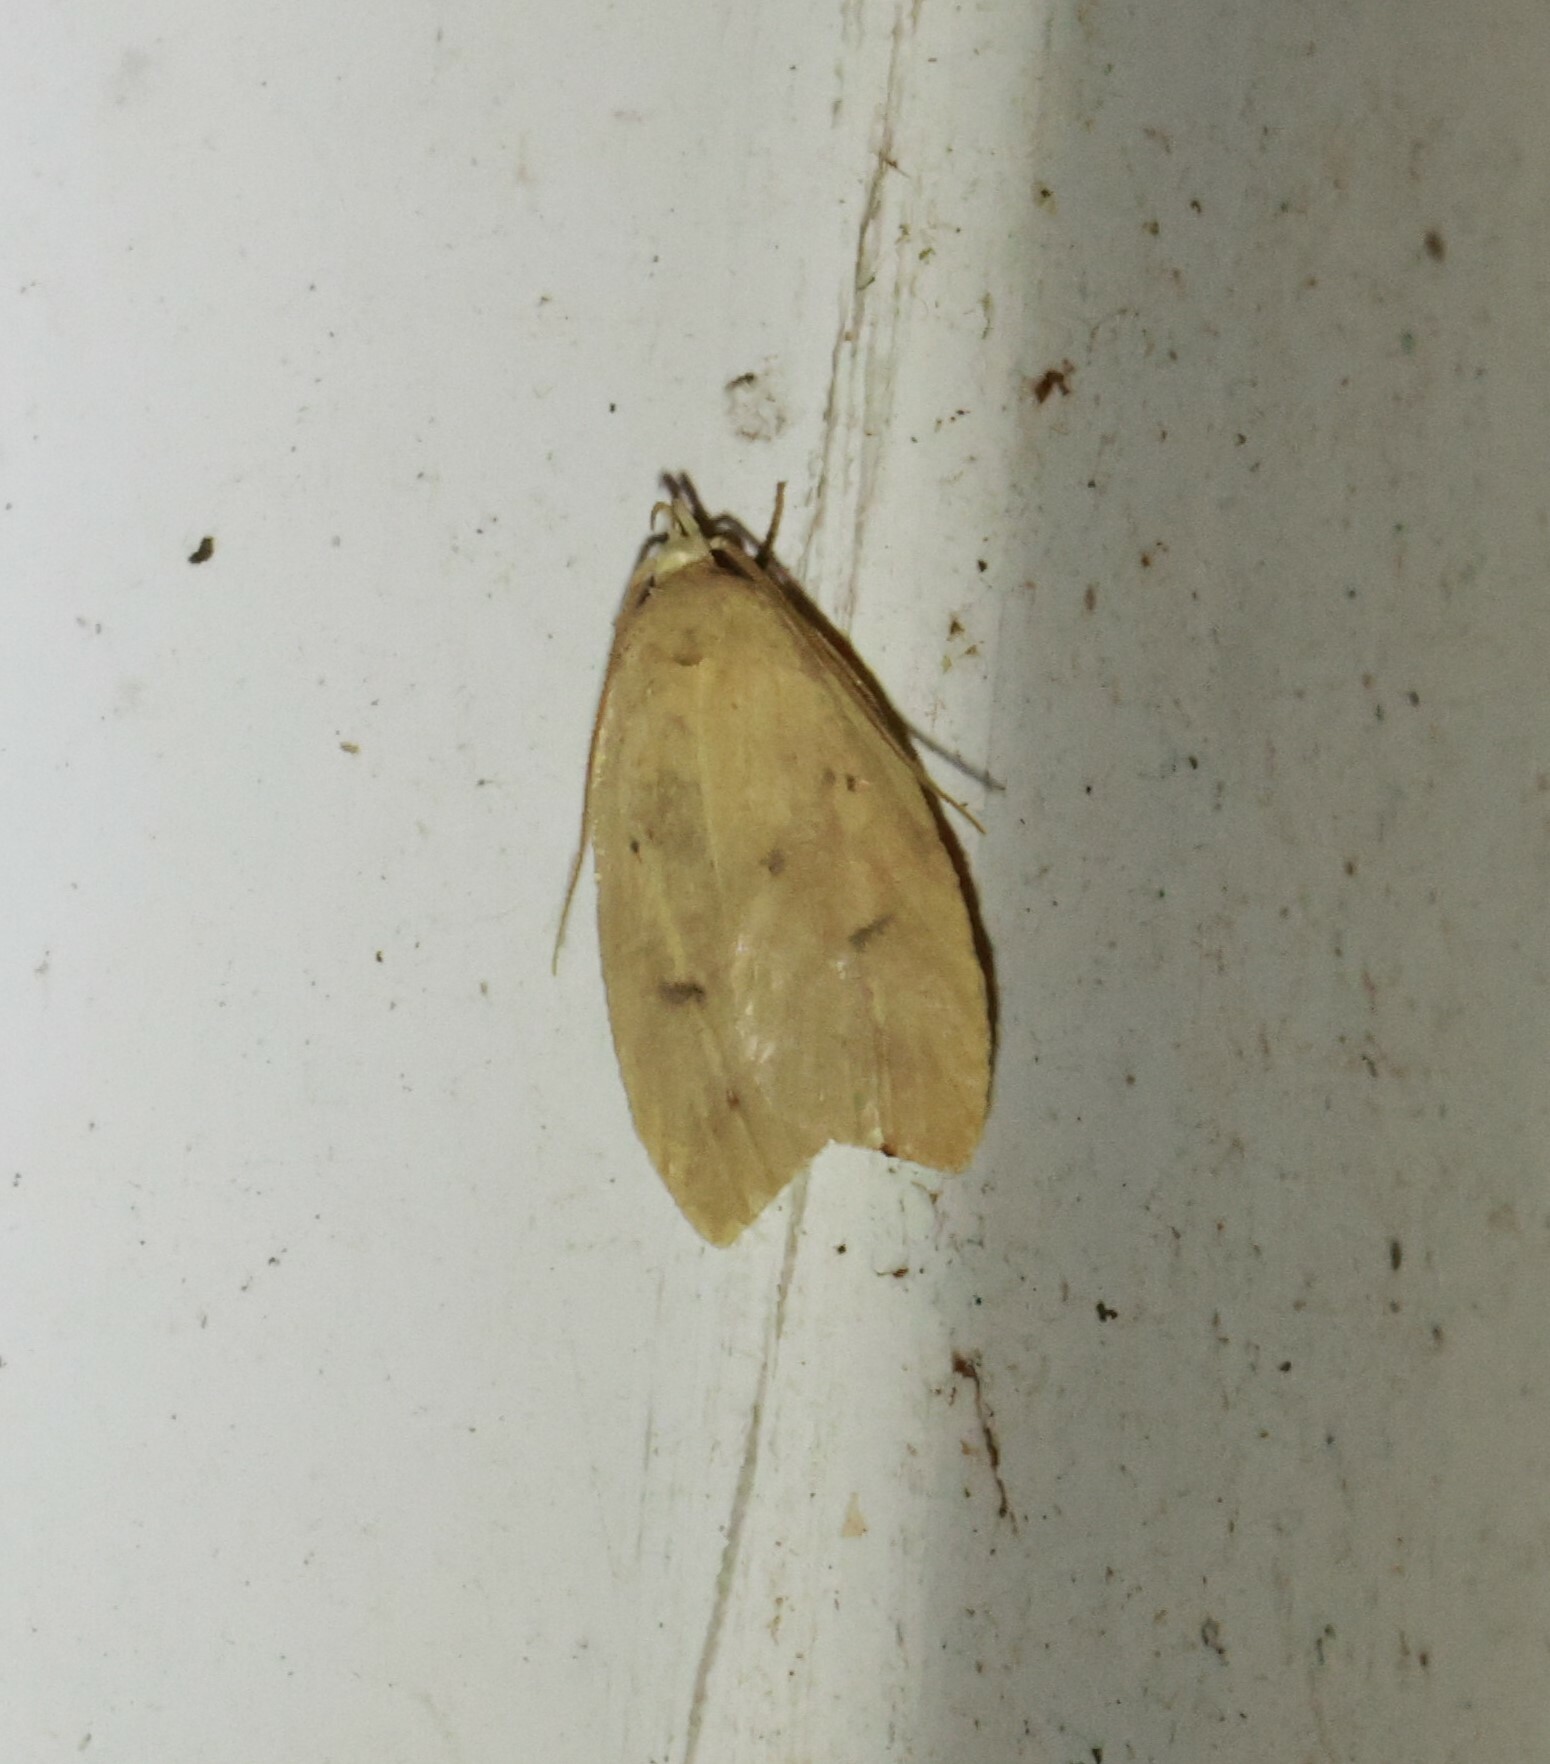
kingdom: Animalia
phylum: Arthropoda
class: Insecta
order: Lepidoptera
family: Peleopodidae
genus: Machimia
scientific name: Machimia tentoriferella
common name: Gold-striped leaftier moth
